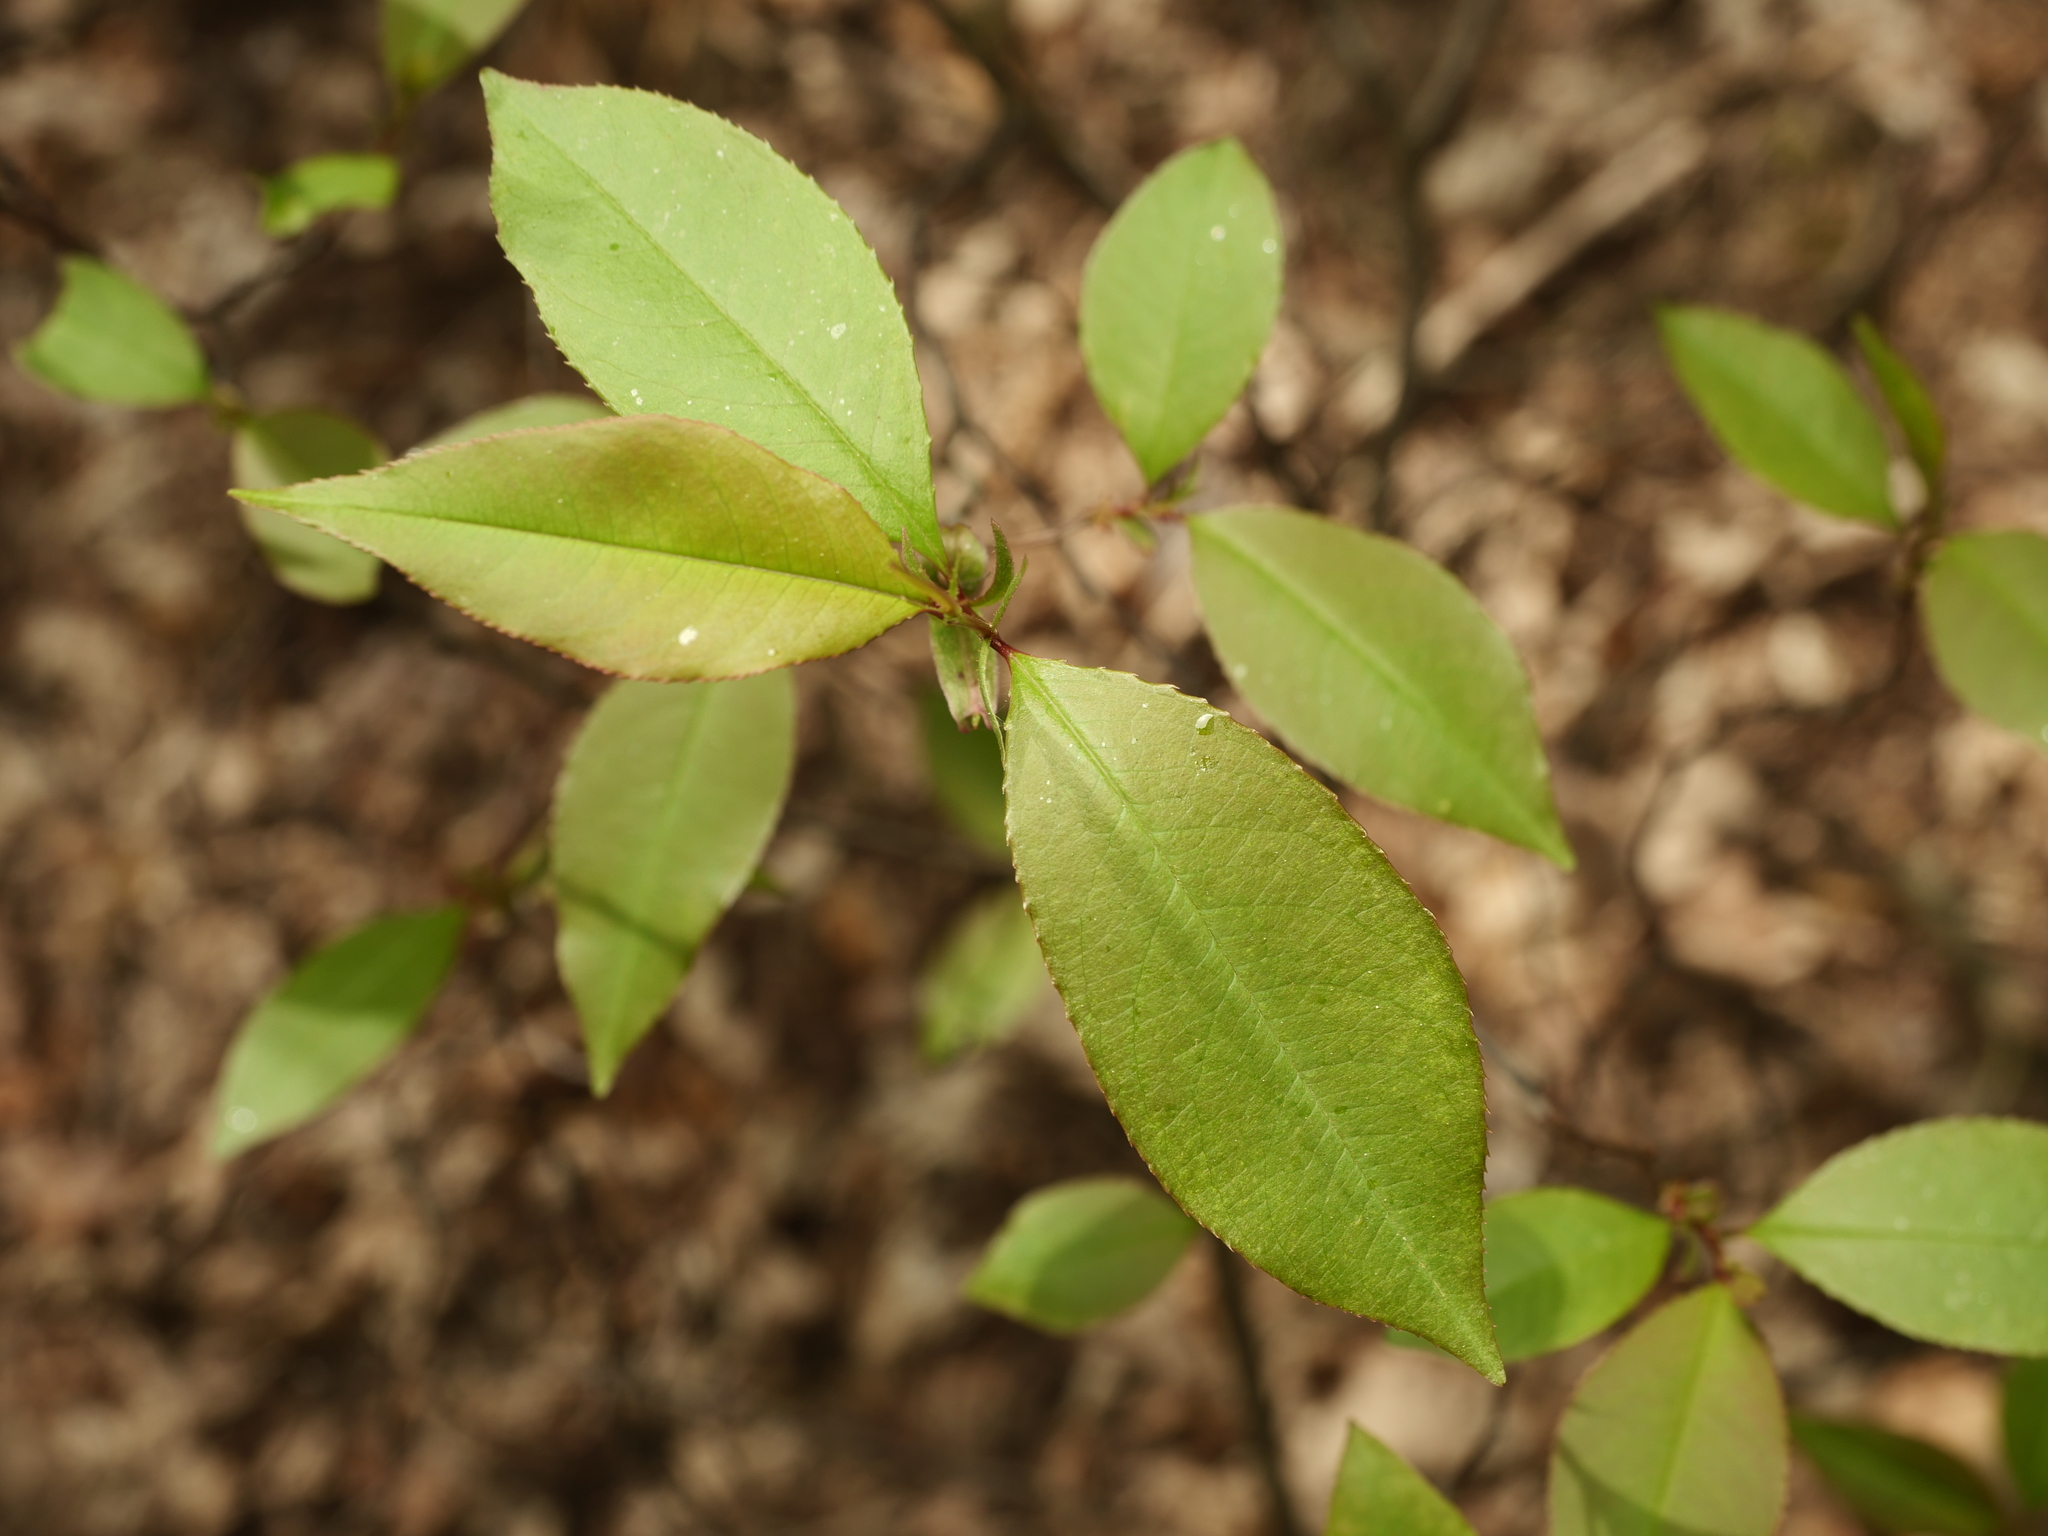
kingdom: Plantae
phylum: Tracheophyta
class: Magnoliopsida
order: Rosales
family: Rosaceae
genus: Prunus
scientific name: Prunus serotina
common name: Black cherry
